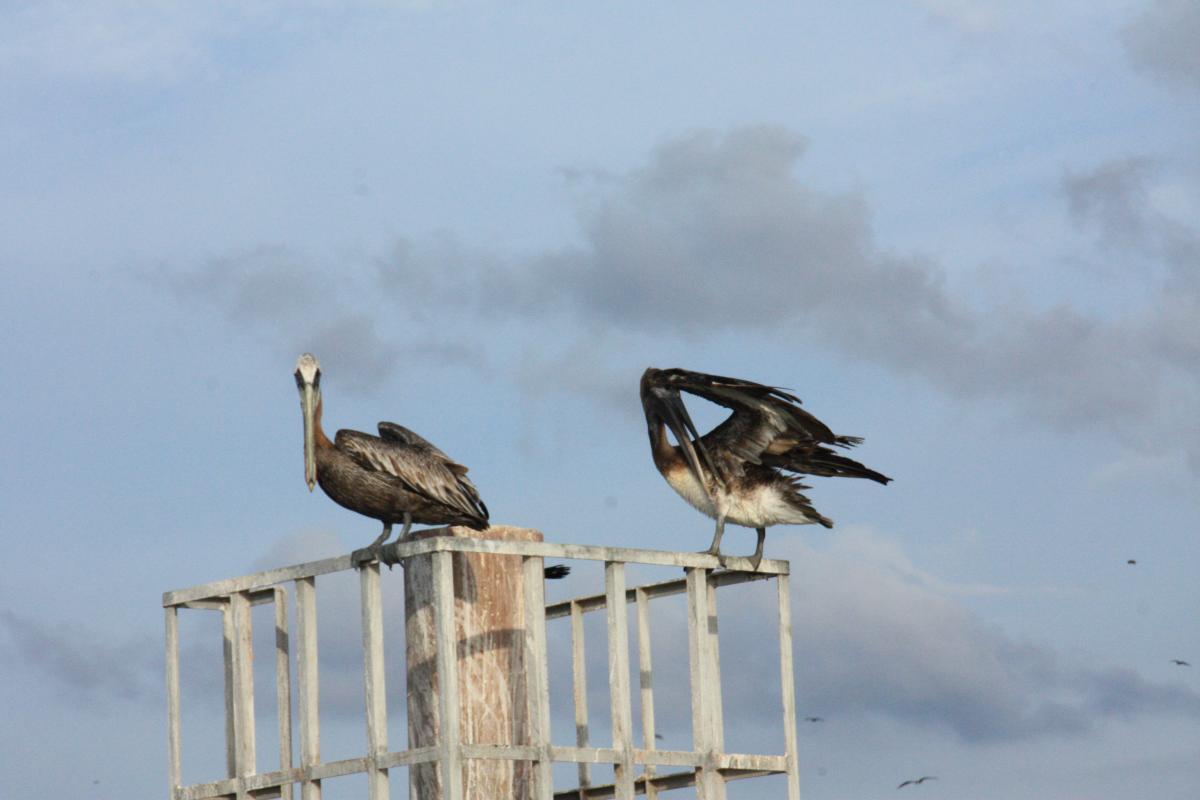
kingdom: Animalia
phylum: Chordata
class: Aves
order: Pelecaniformes
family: Pelecanidae
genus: Pelecanus
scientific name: Pelecanus occidentalis
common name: Brown pelican
